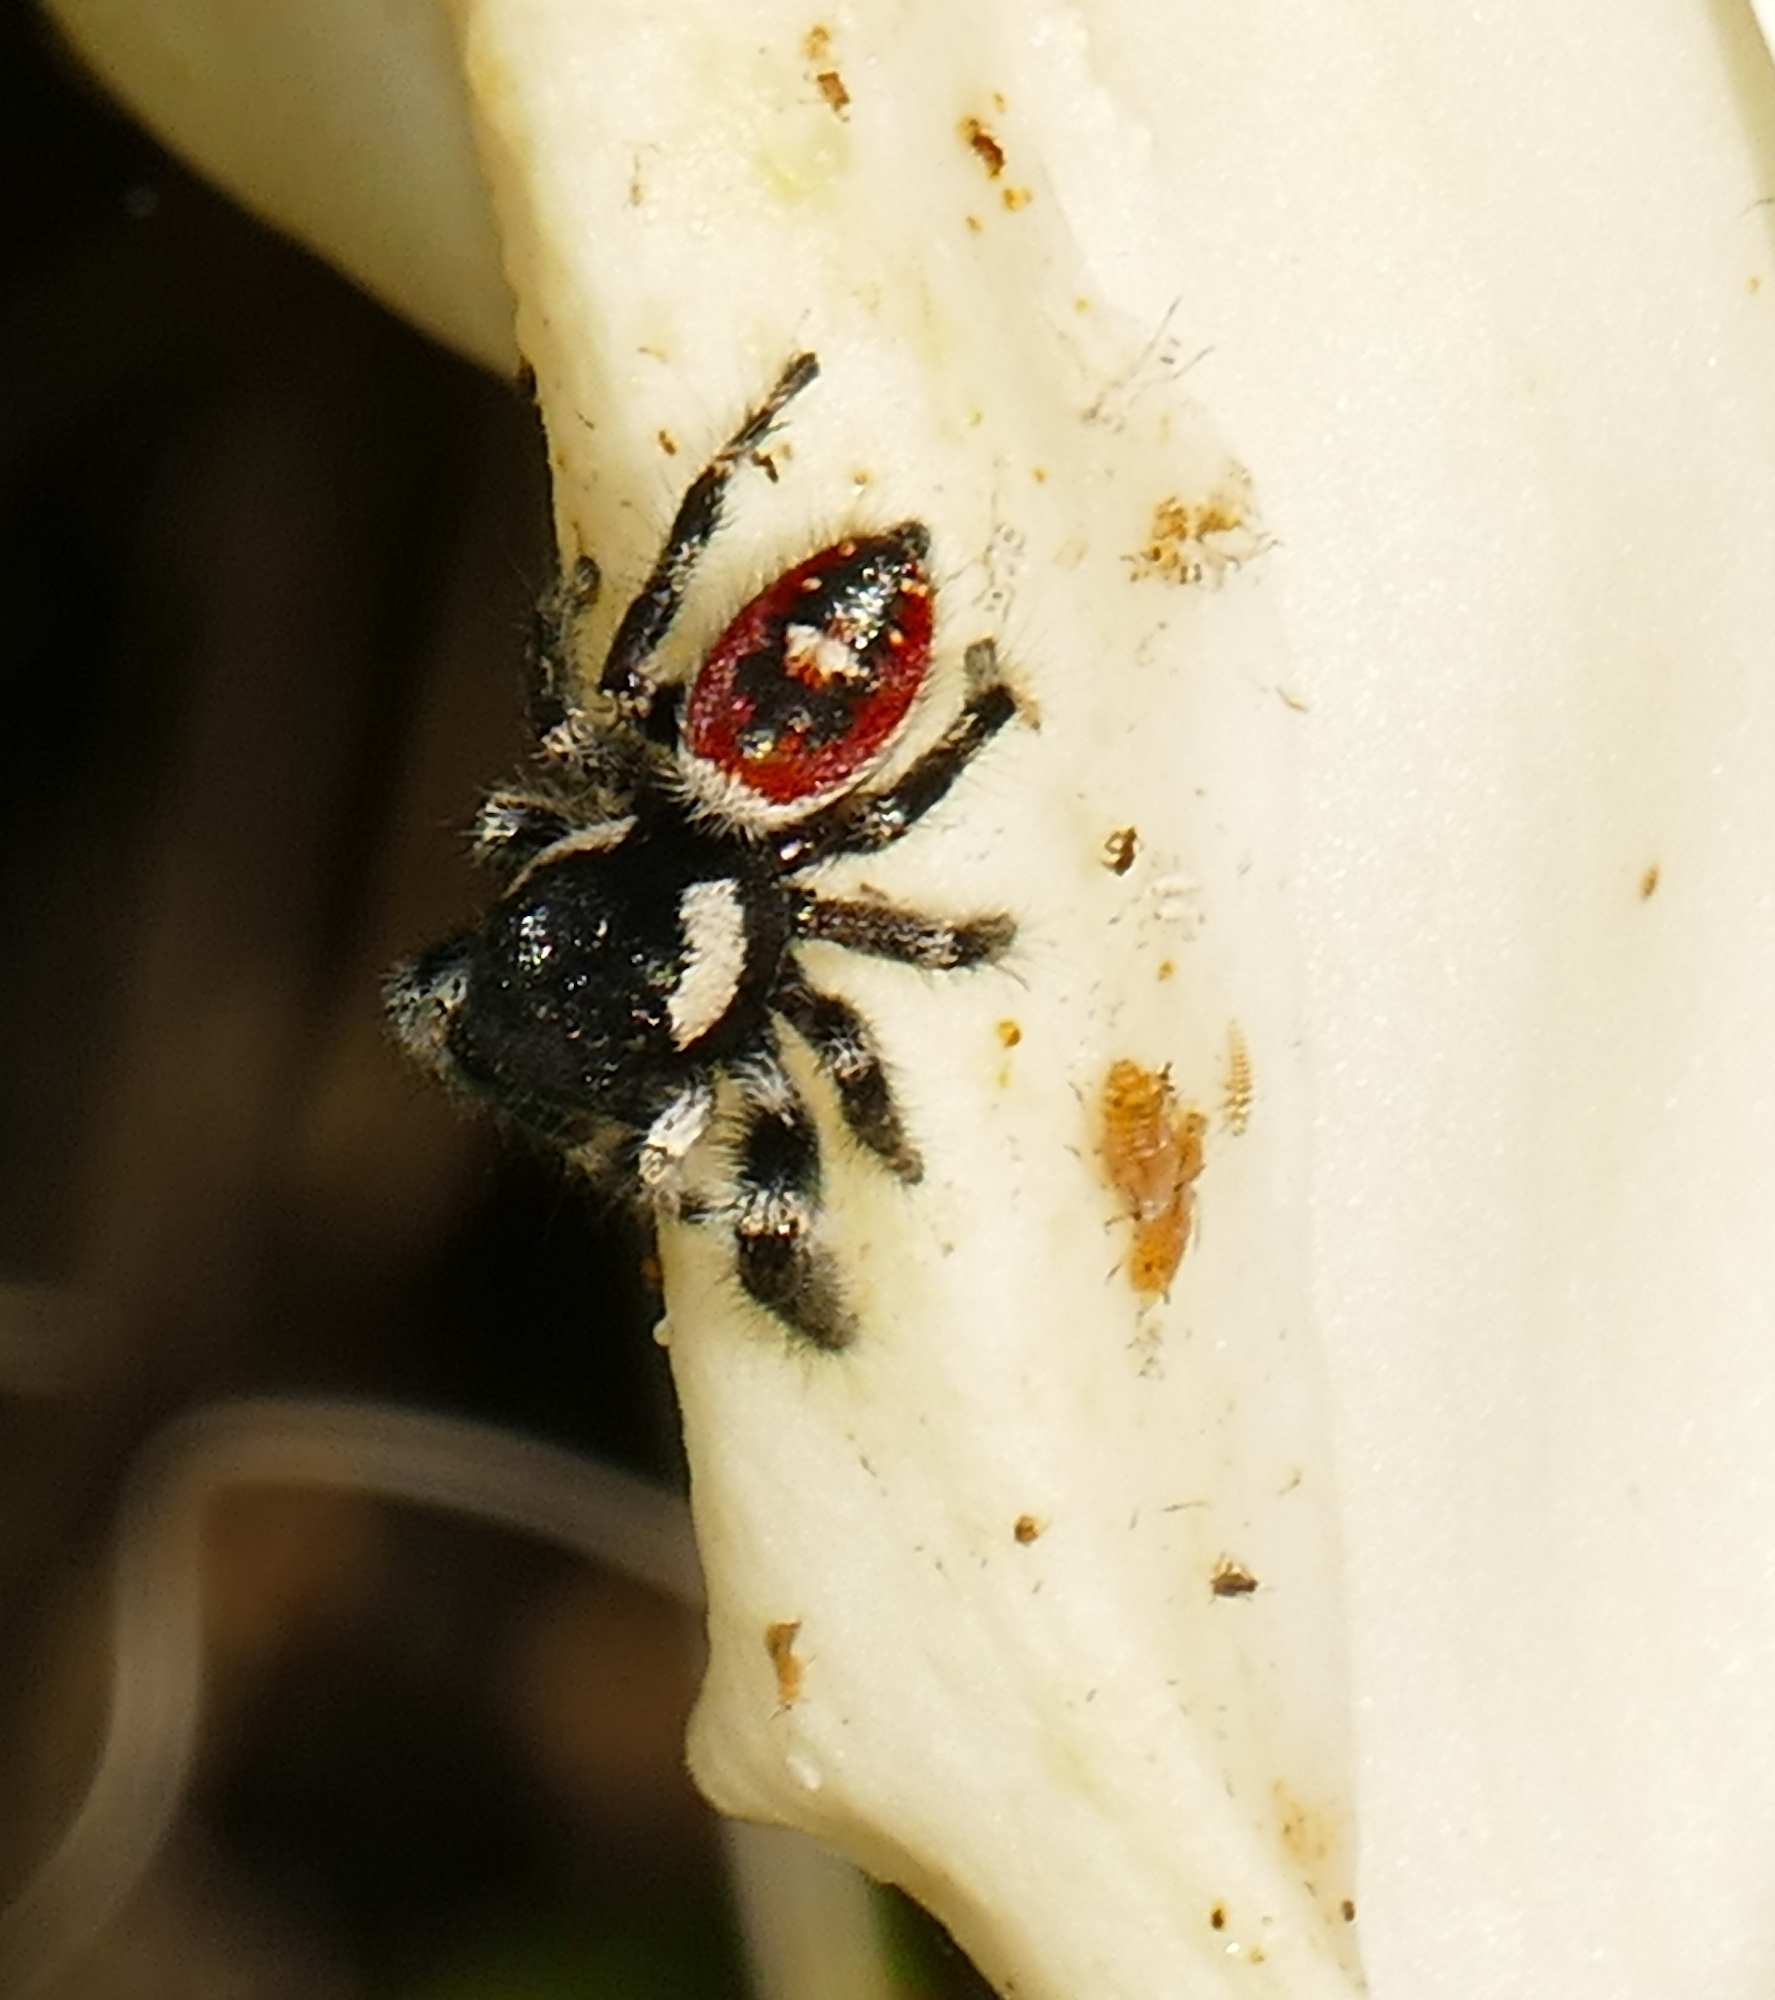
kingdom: Animalia
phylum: Arthropoda
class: Arachnida
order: Araneae
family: Salticidae
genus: Phidippus
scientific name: Phidippus californicus
